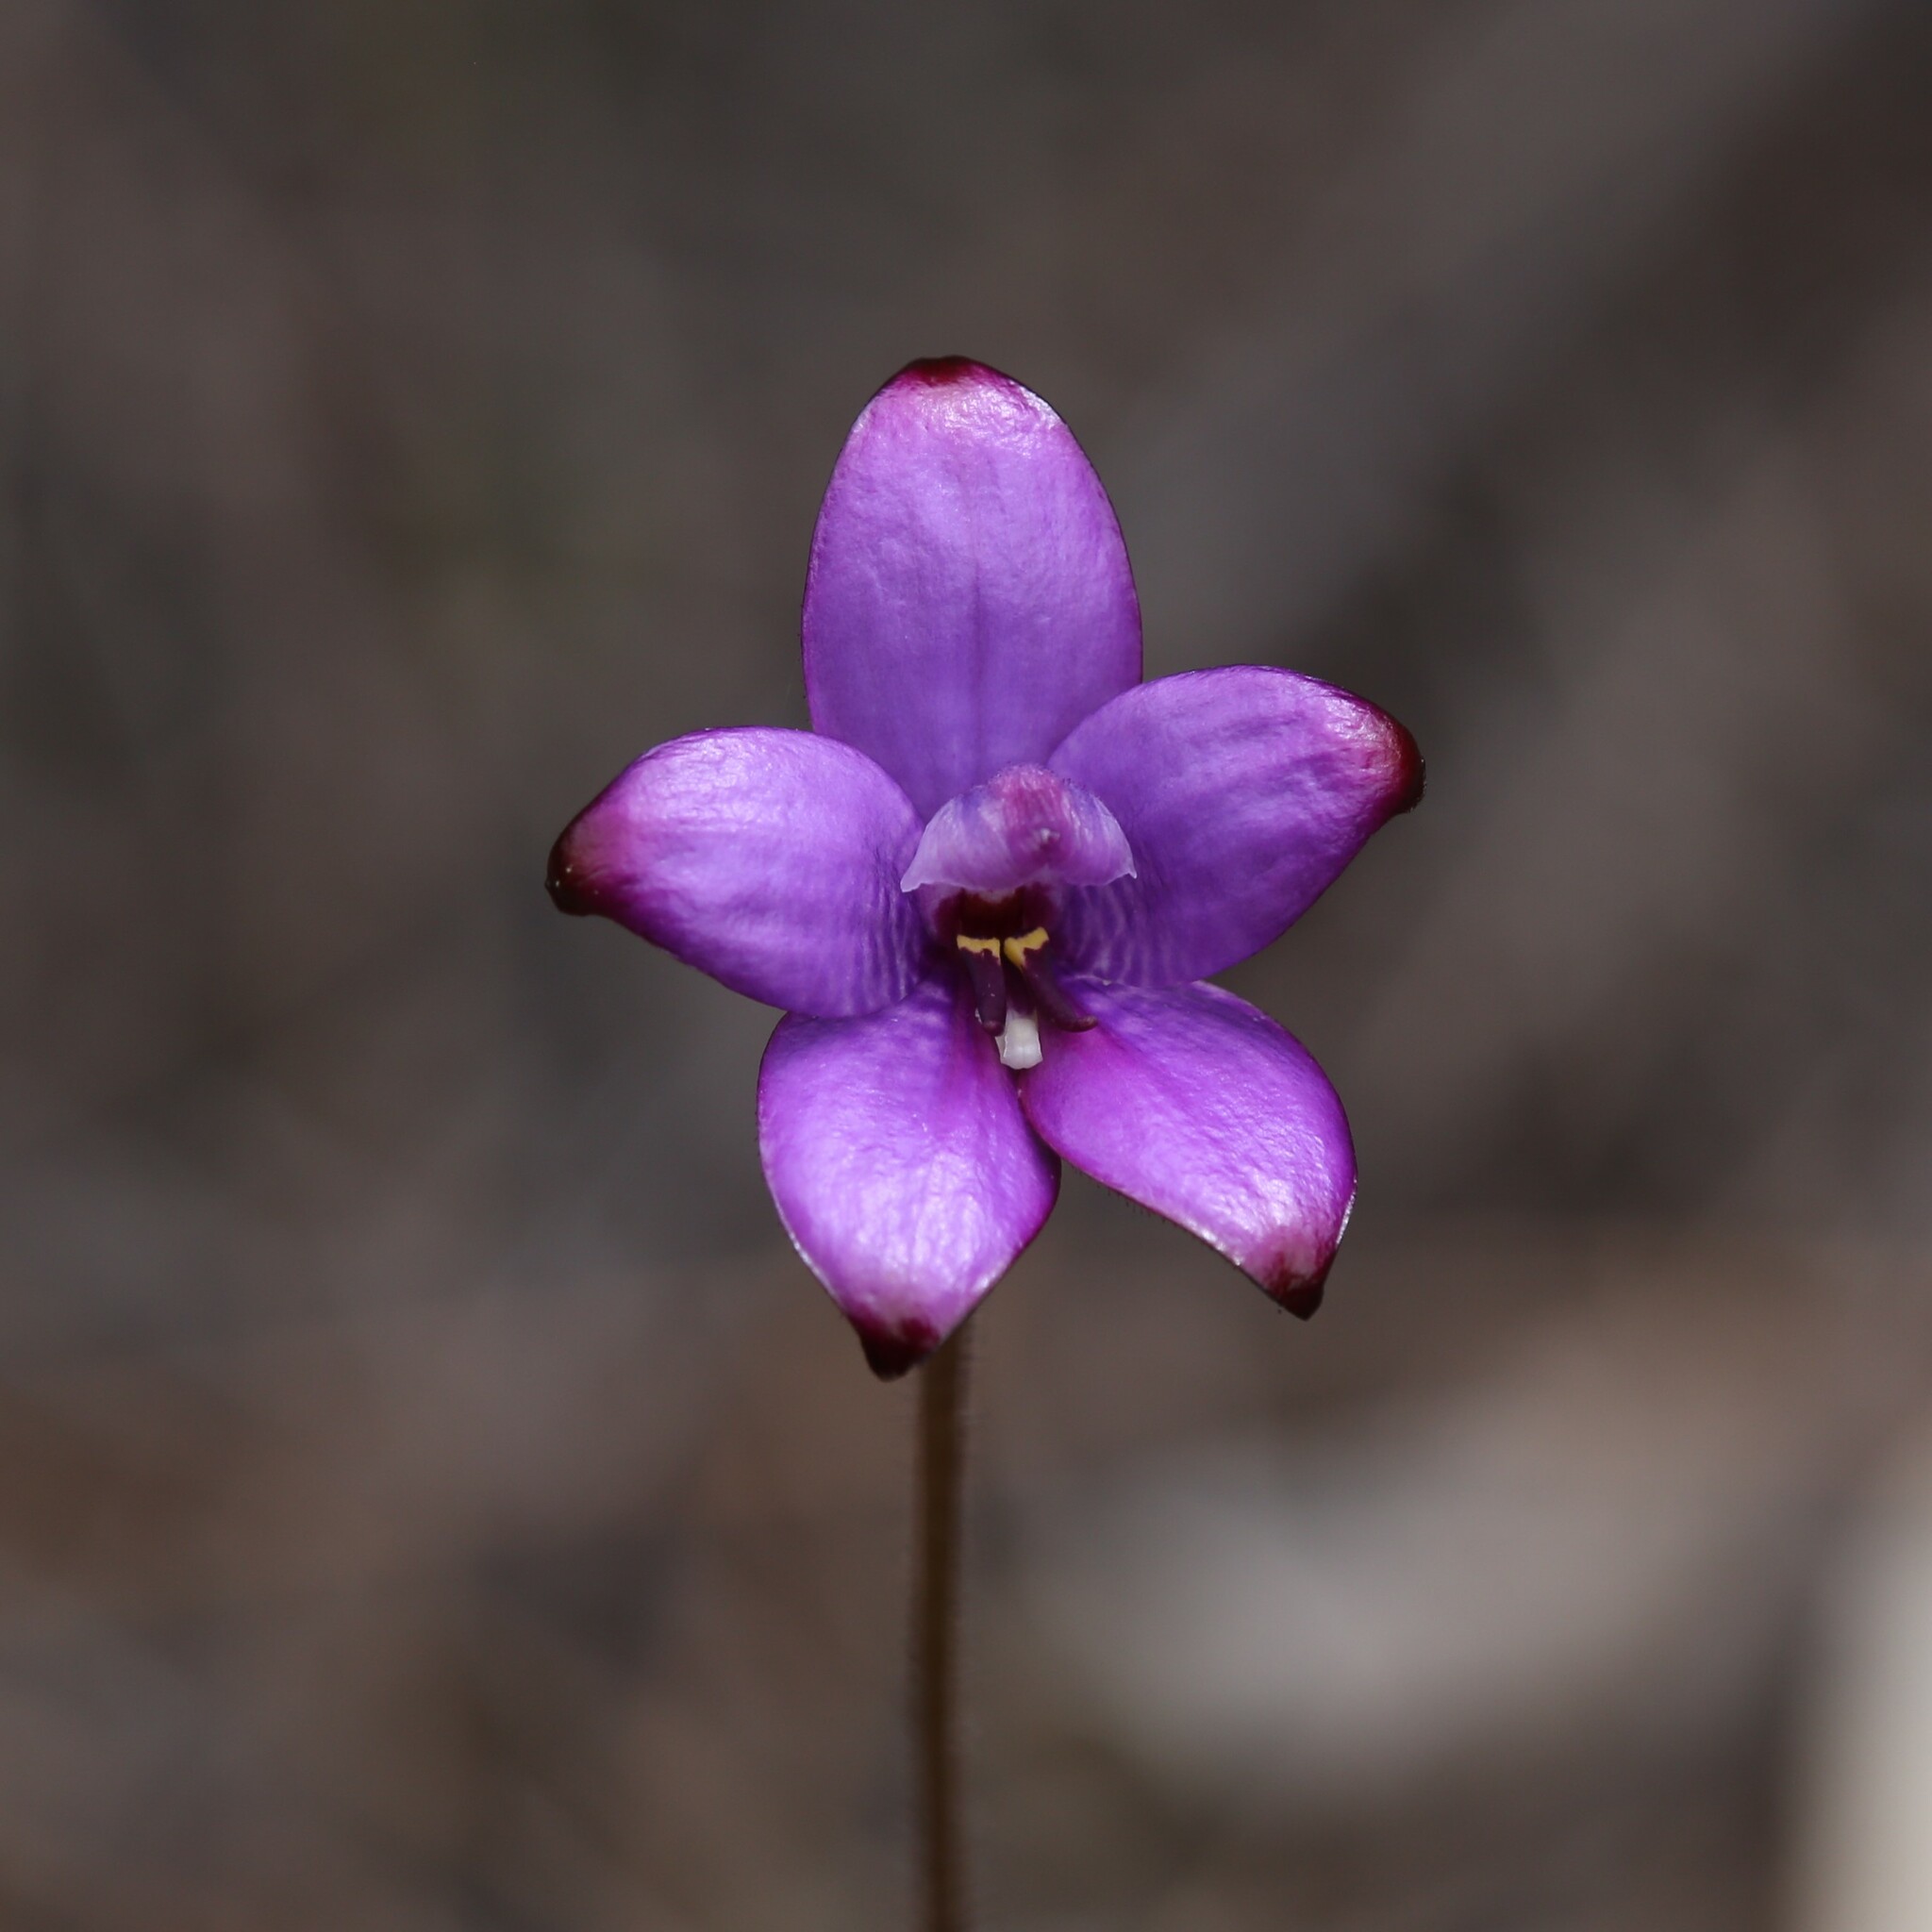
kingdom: Plantae
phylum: Tracheophyta
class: Liliopsida
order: Asparagales
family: Orchidaceae
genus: Caladenia
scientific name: Caladenia brunonis
